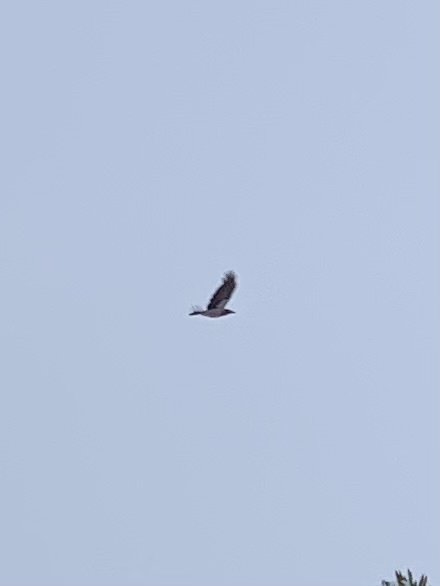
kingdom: Animalia
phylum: Chordata
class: Aves
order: Passeriformes
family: Corvidae
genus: Corvus
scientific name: Corvus cornix
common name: Hooded crow
